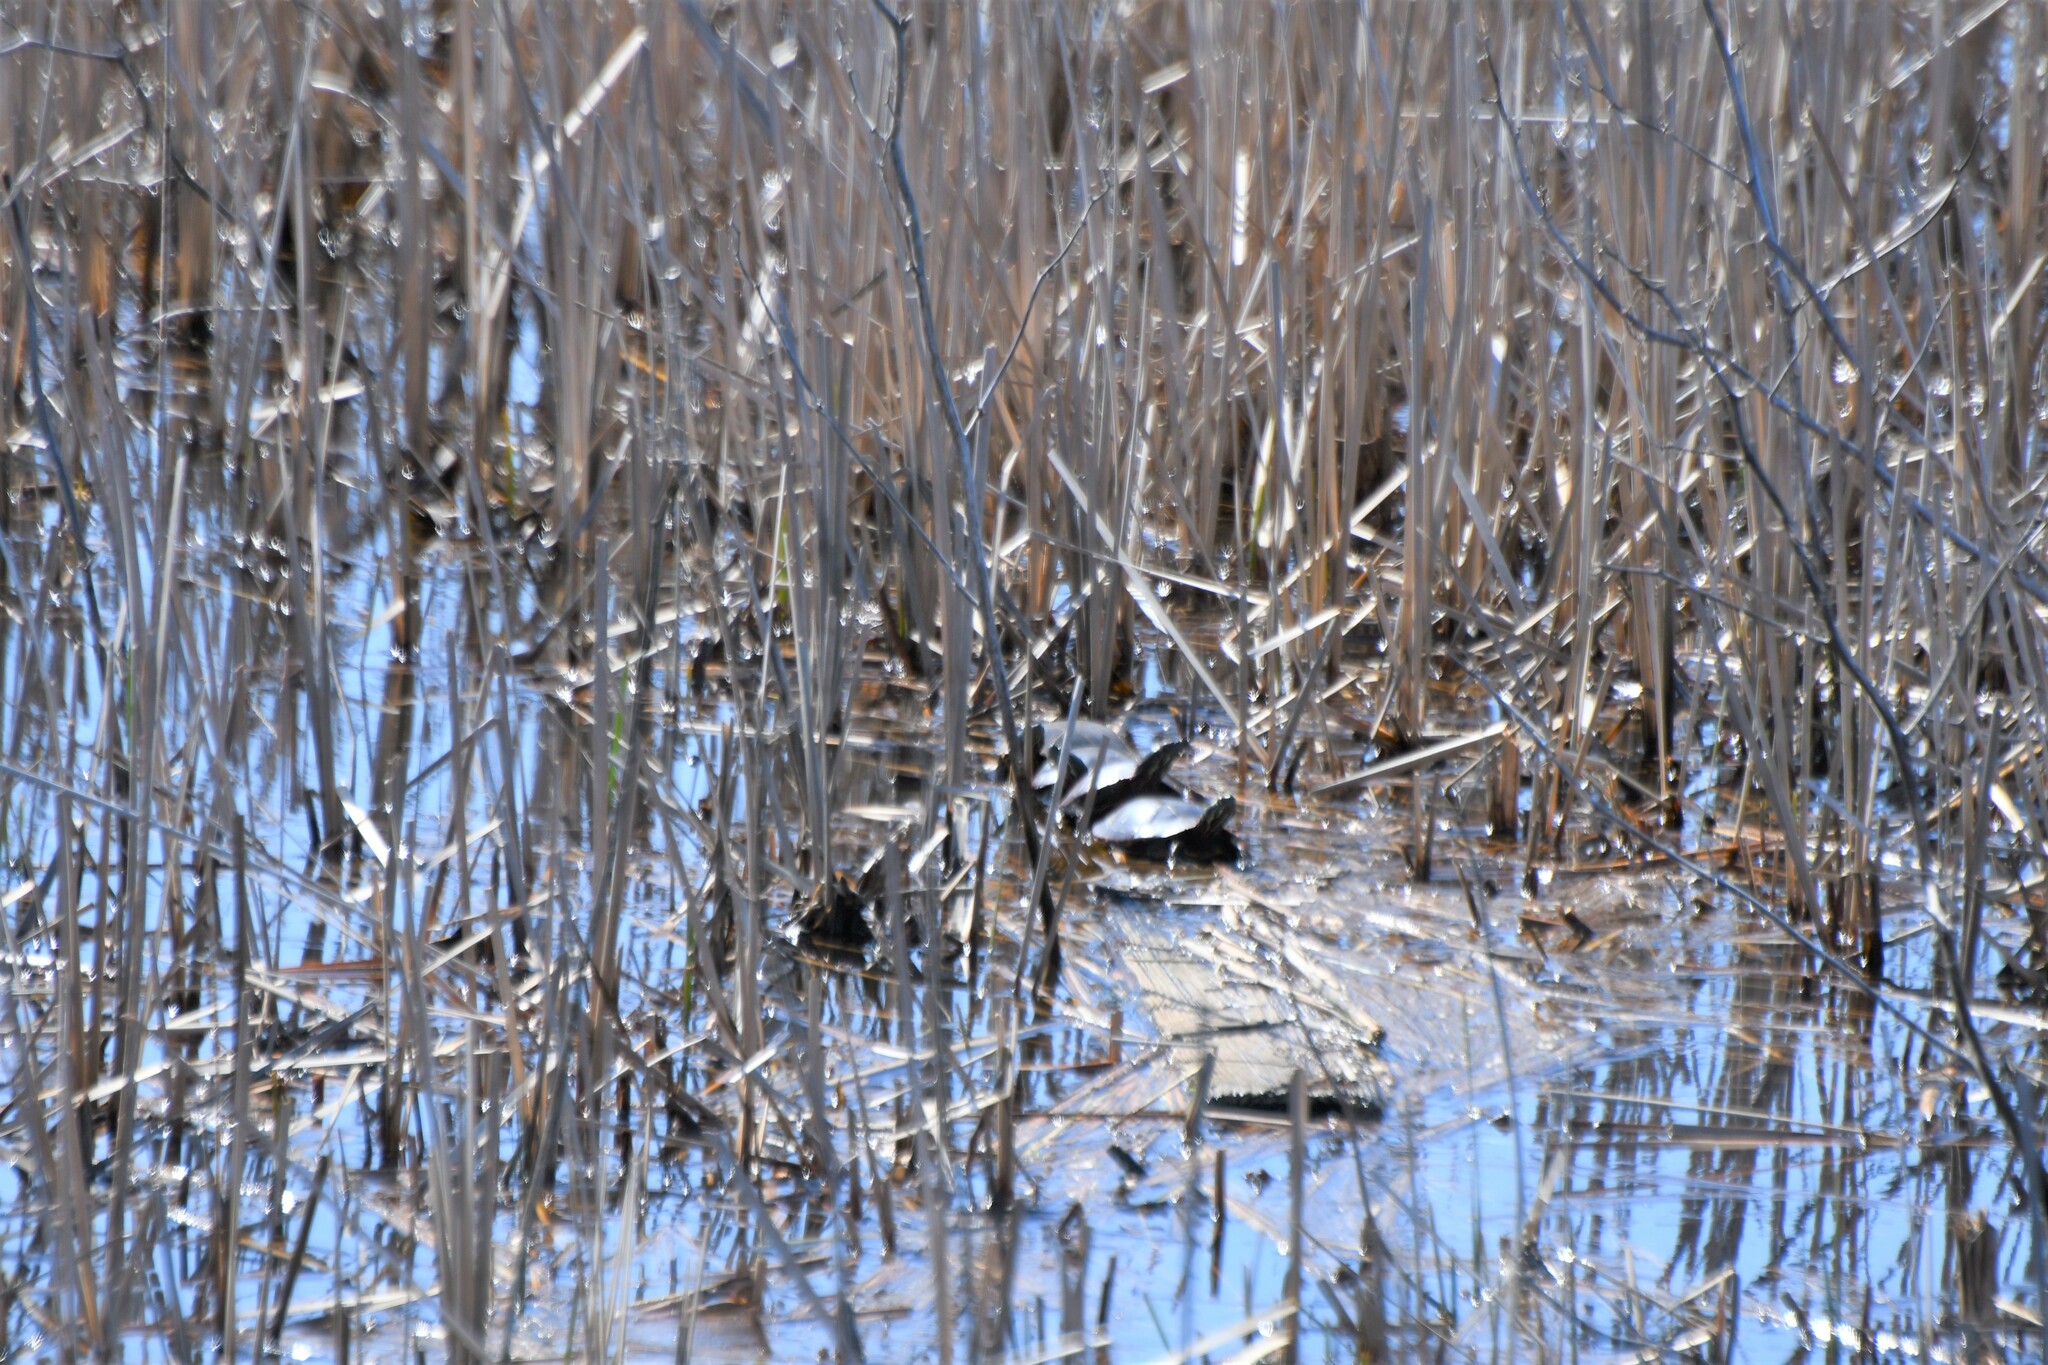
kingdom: Animalia
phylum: Chordata
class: Testudines
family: Emydidae
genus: Chrysemys
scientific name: Chrysemys picta
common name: Painted turtle
